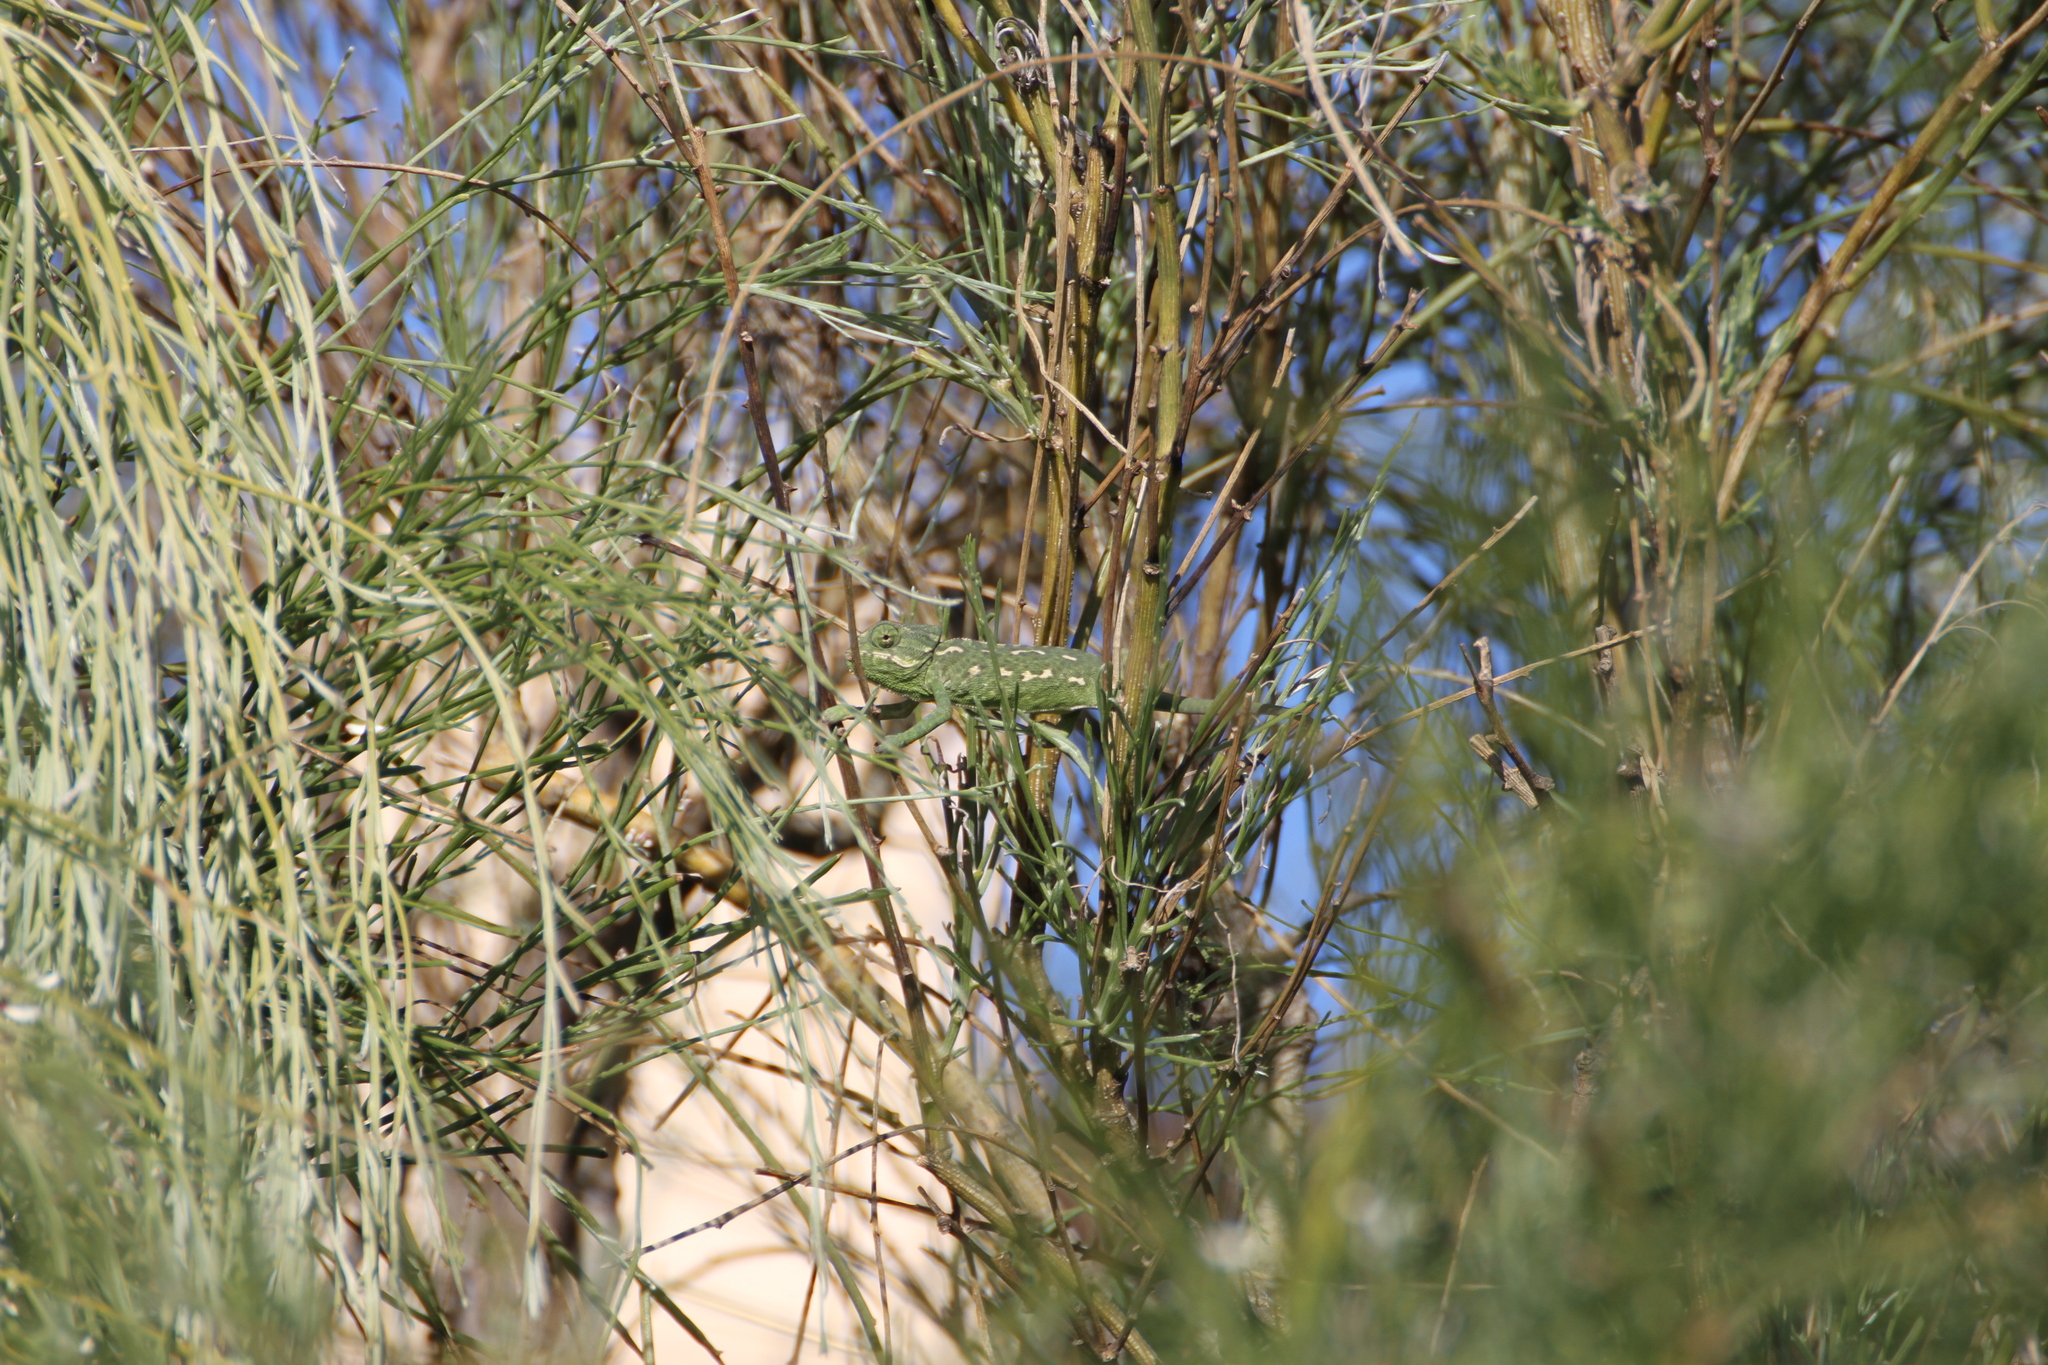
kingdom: Animalia
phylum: Chordata
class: Squamata
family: Chamaeleonidae
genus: Chamaeleo
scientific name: Chamaeleo chamaeleon
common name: Mediterranean chameleon
